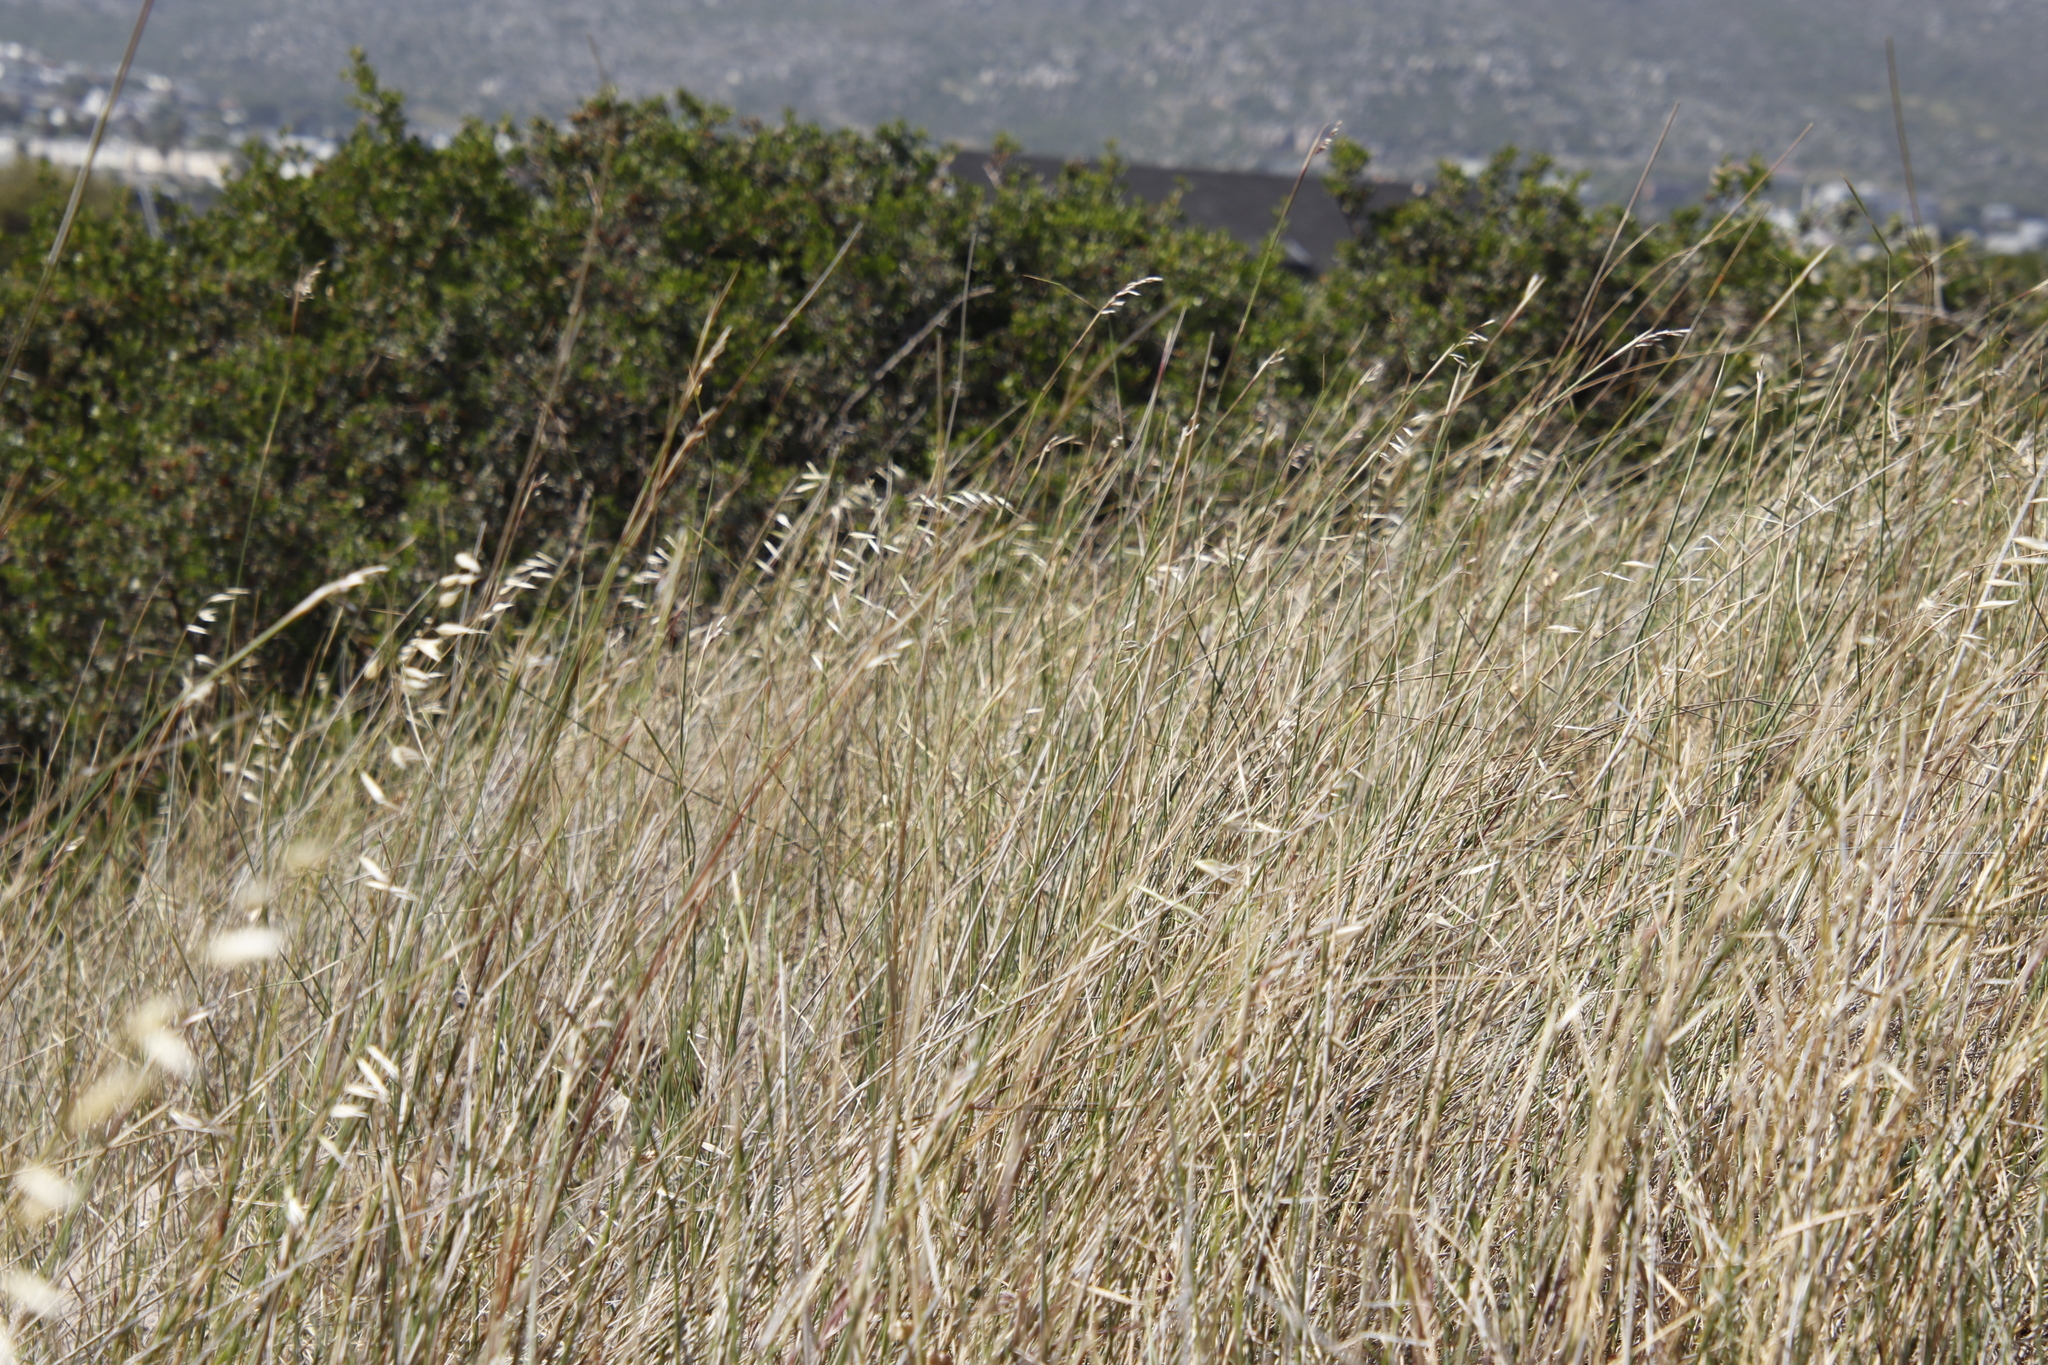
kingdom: Plantae
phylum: Tracheophyta
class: Liliopsida
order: Poales
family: Poaceae
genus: Avena
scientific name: Avena fatua
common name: Wild oat
